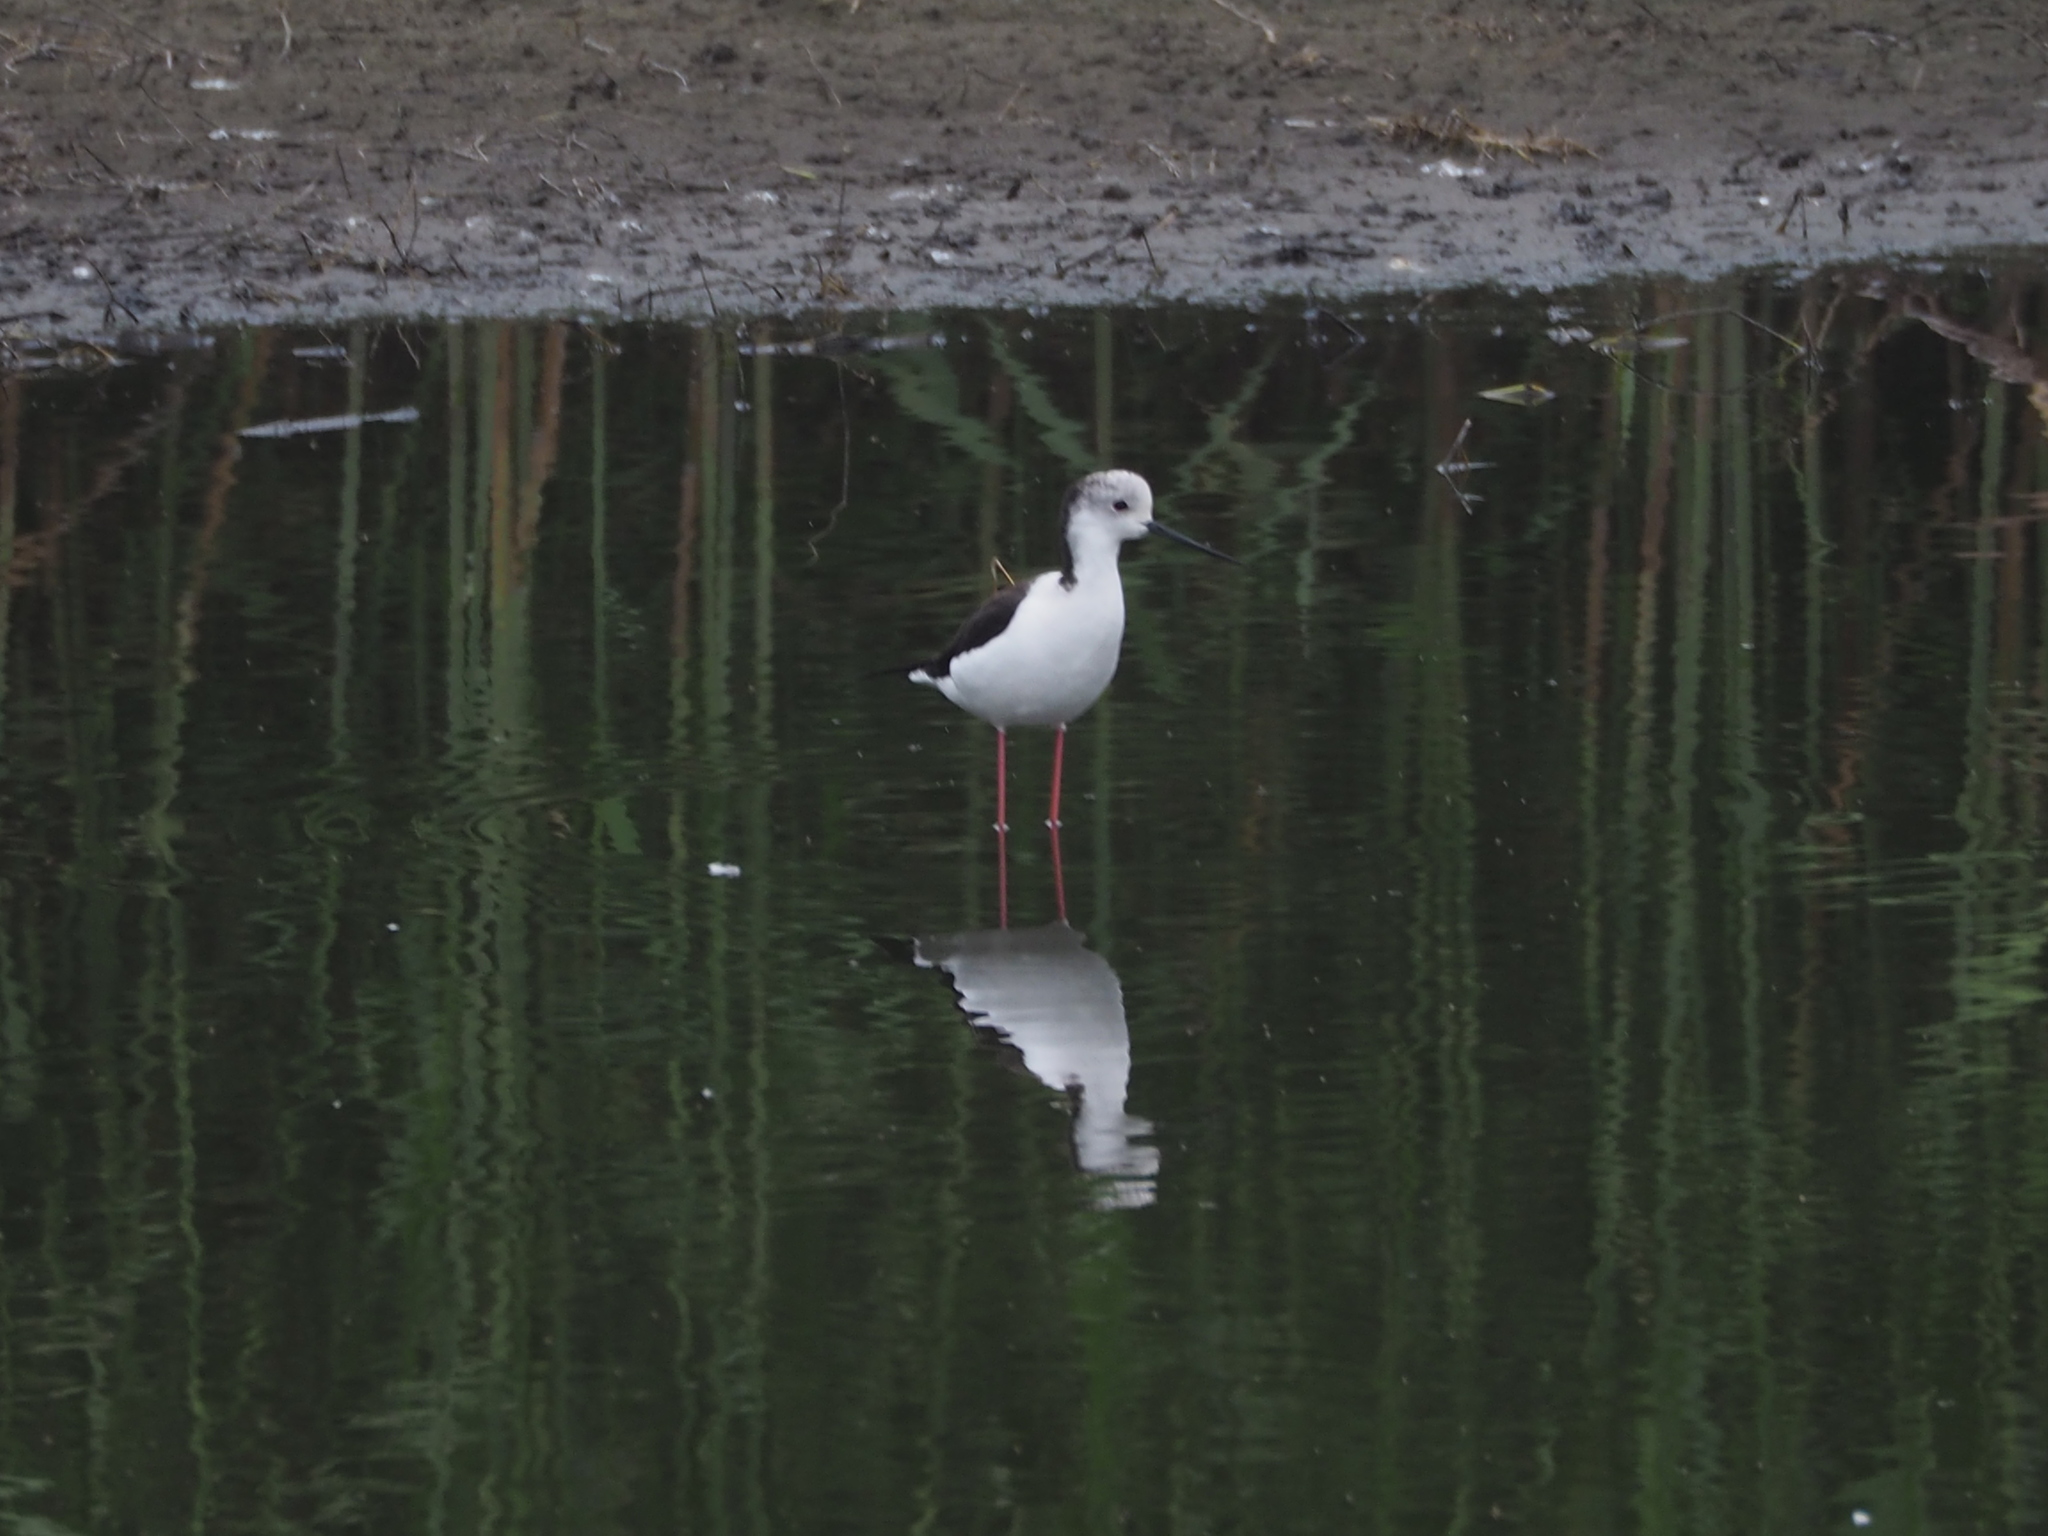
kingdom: Animalia
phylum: Chordata
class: Aves
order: Charadriiformes
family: Recurvirostridae
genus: Himantopus
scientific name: Himantopus himantopus
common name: Black-winged stilt
